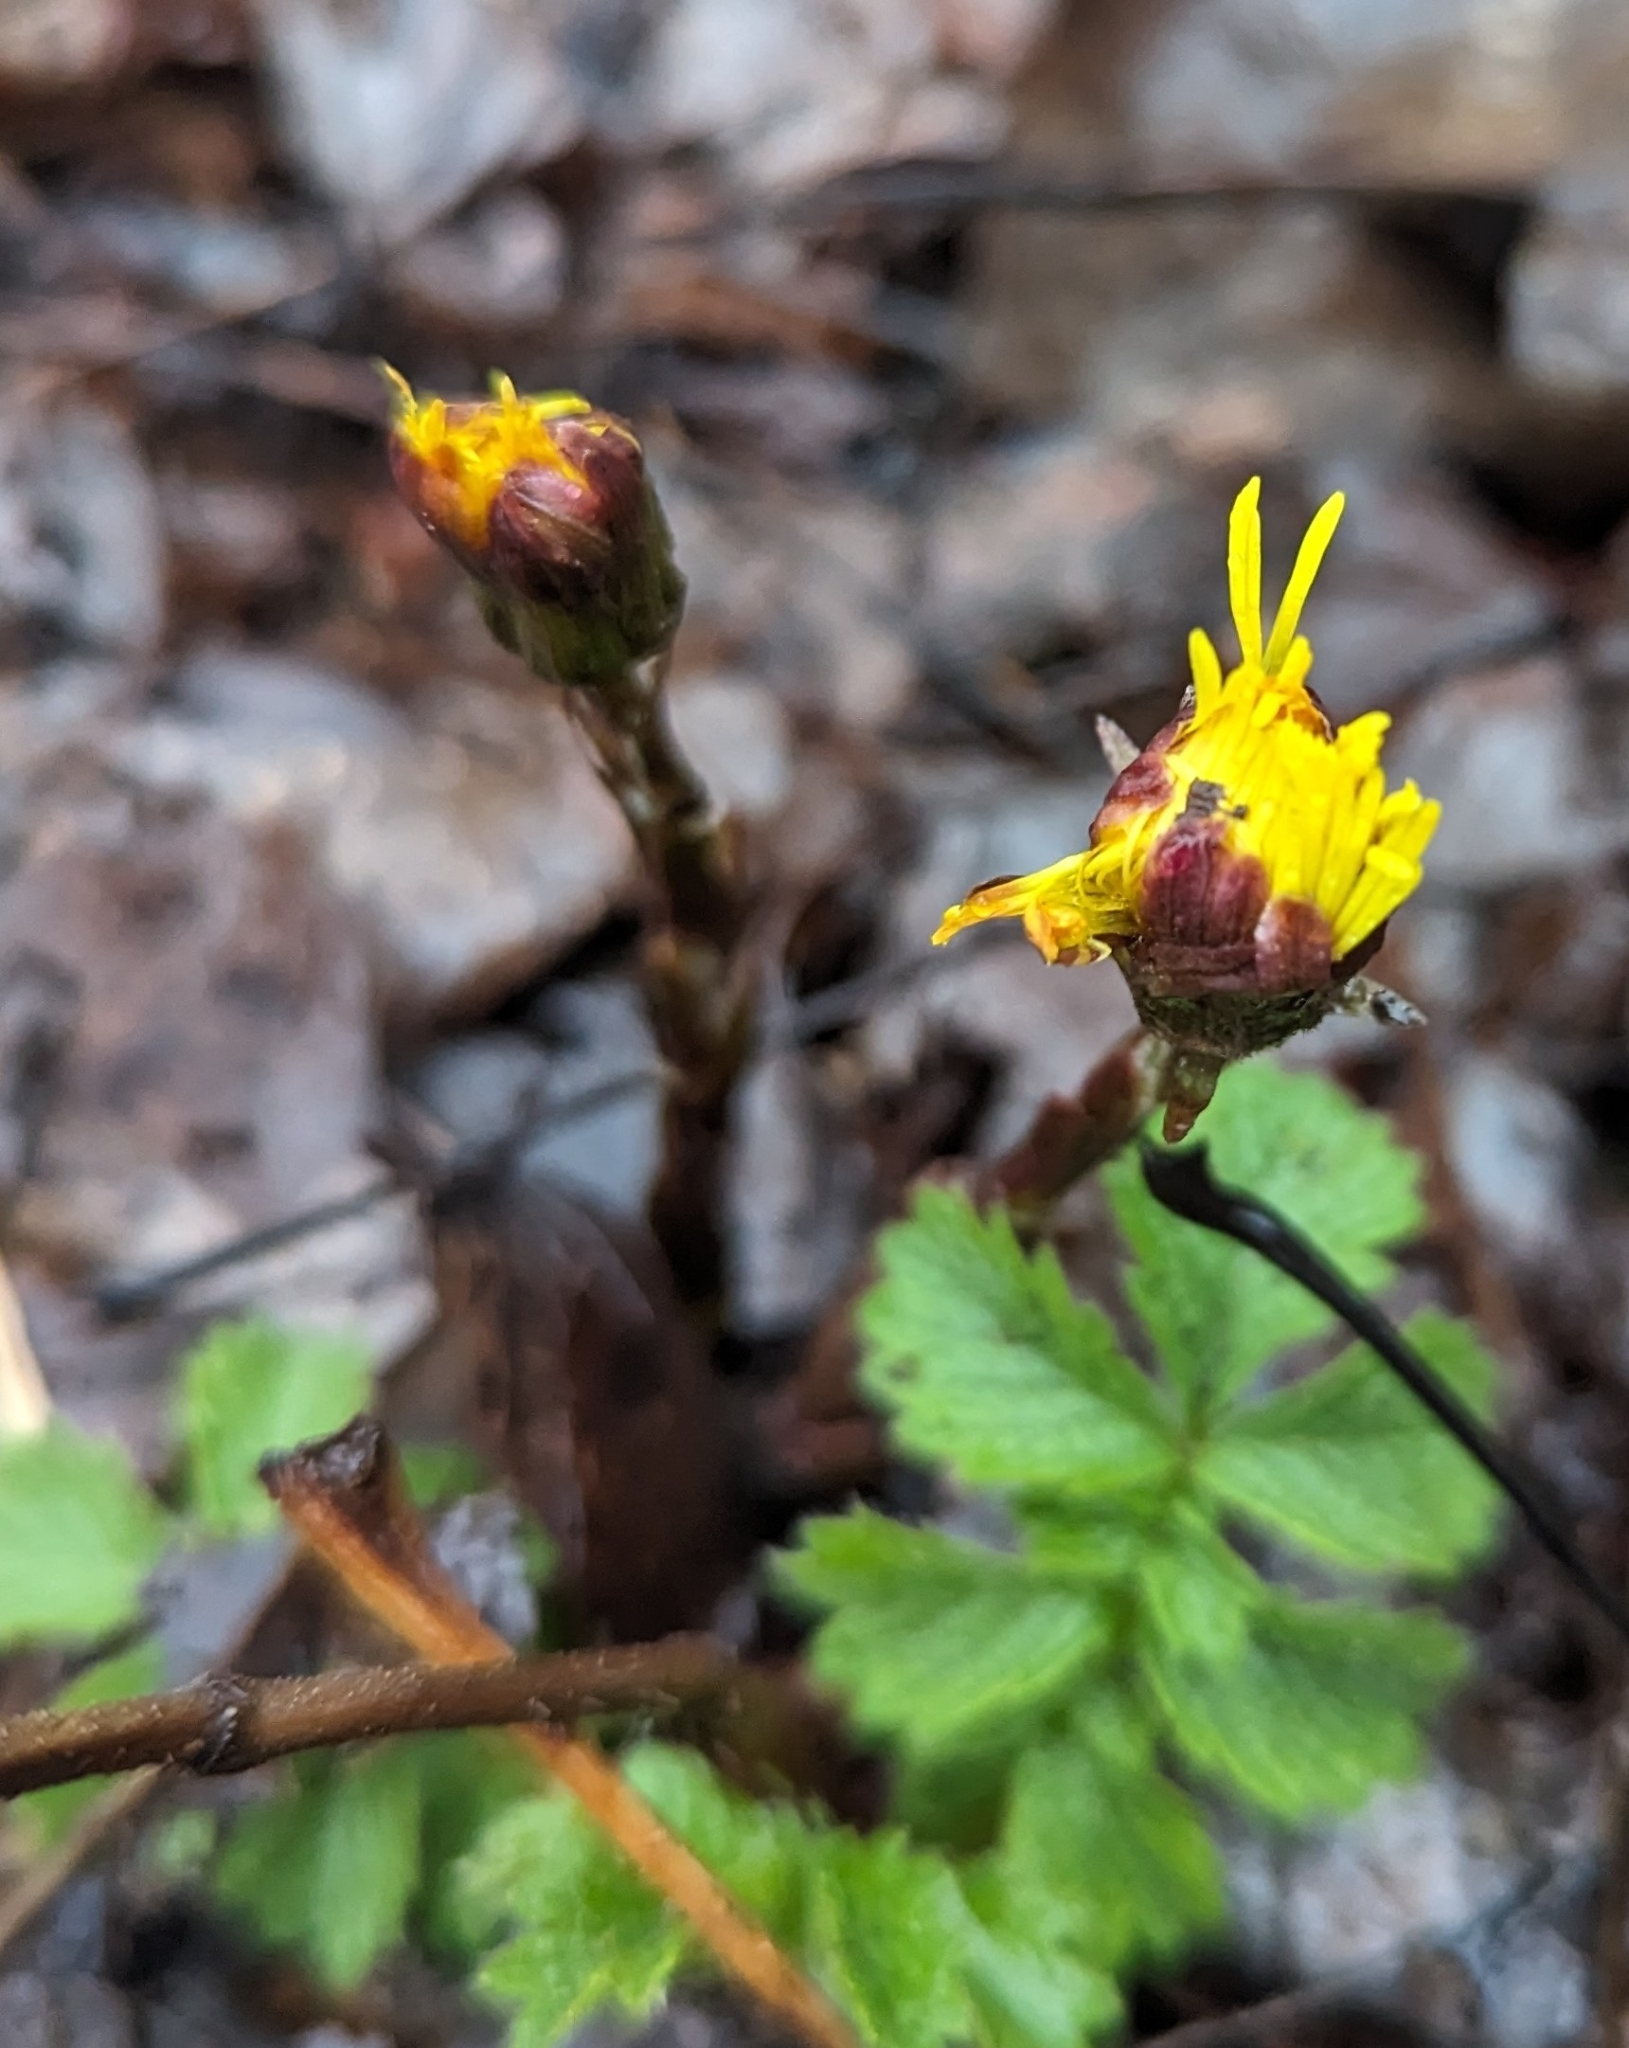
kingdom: Plantae
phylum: Tracheophyta
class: Magnoliopsida
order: Asterales
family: Asteraceae
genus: Tussilago
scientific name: Tussilago farfara
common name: Coltsfoot
